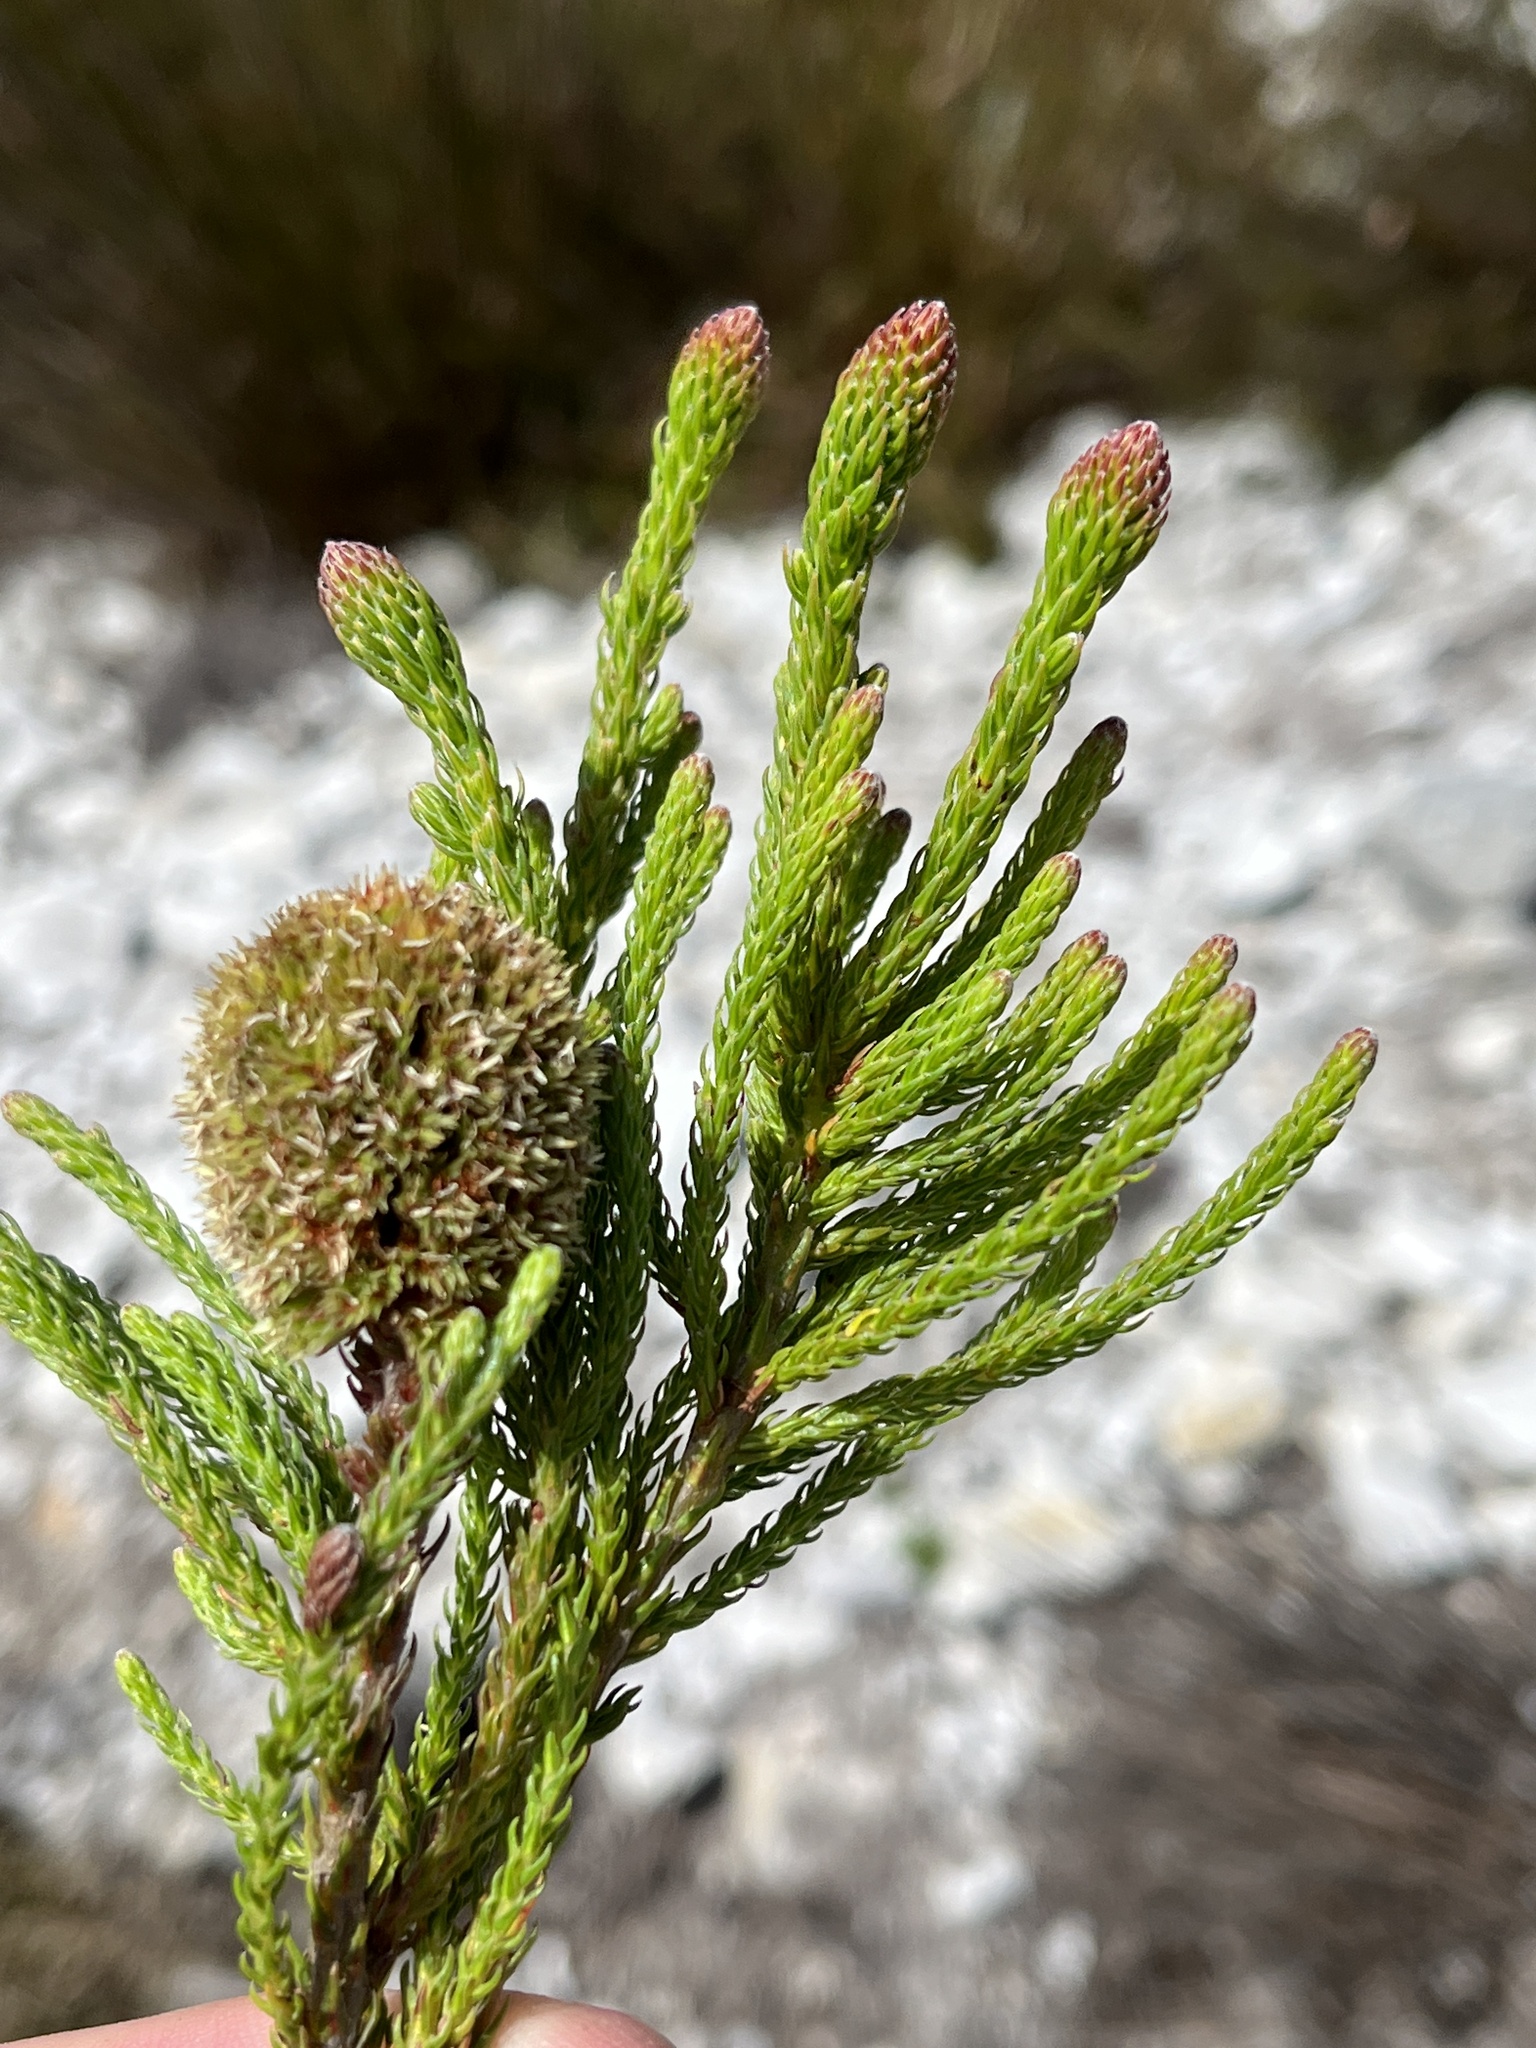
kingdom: Plantae
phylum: Tracheophyta
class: Magnoliopsida
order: Bruniales
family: Bruniaceae
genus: Brunia
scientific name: Brunia latebracteata
